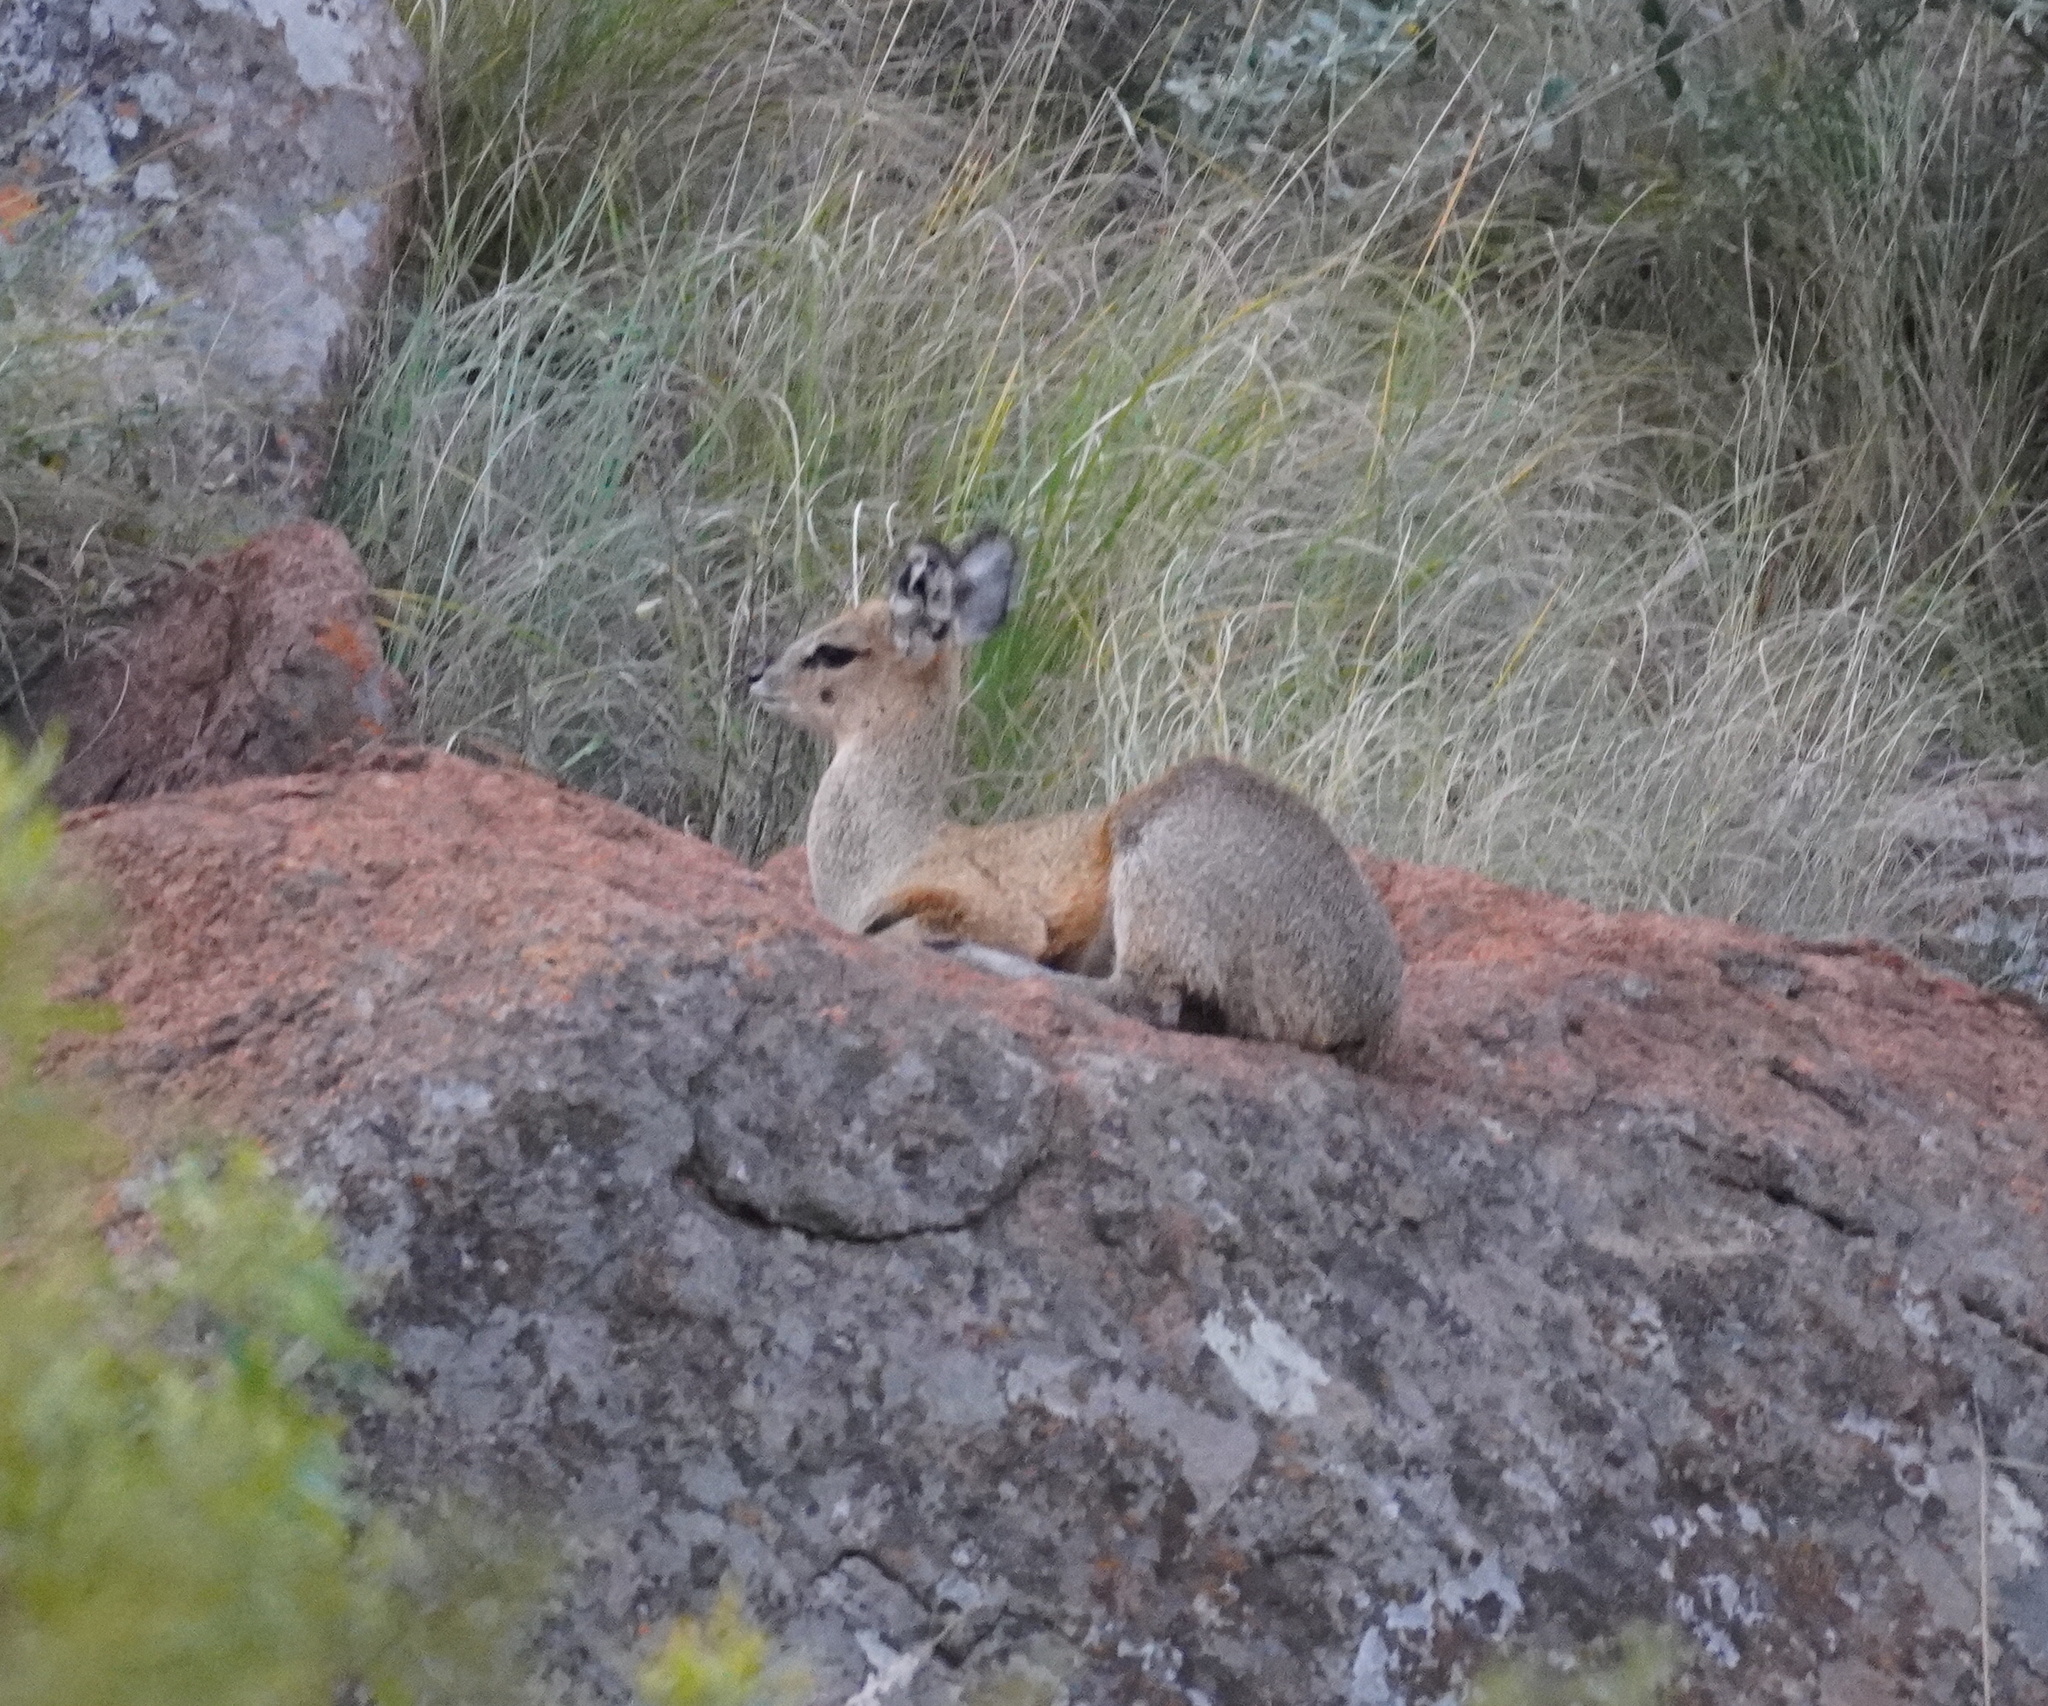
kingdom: Animalia
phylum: Chordata
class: Mammalia
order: Artiodactyla
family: Bovidae
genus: Oreotragus
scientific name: Oreotragus oreotragus
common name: Klipspringer
